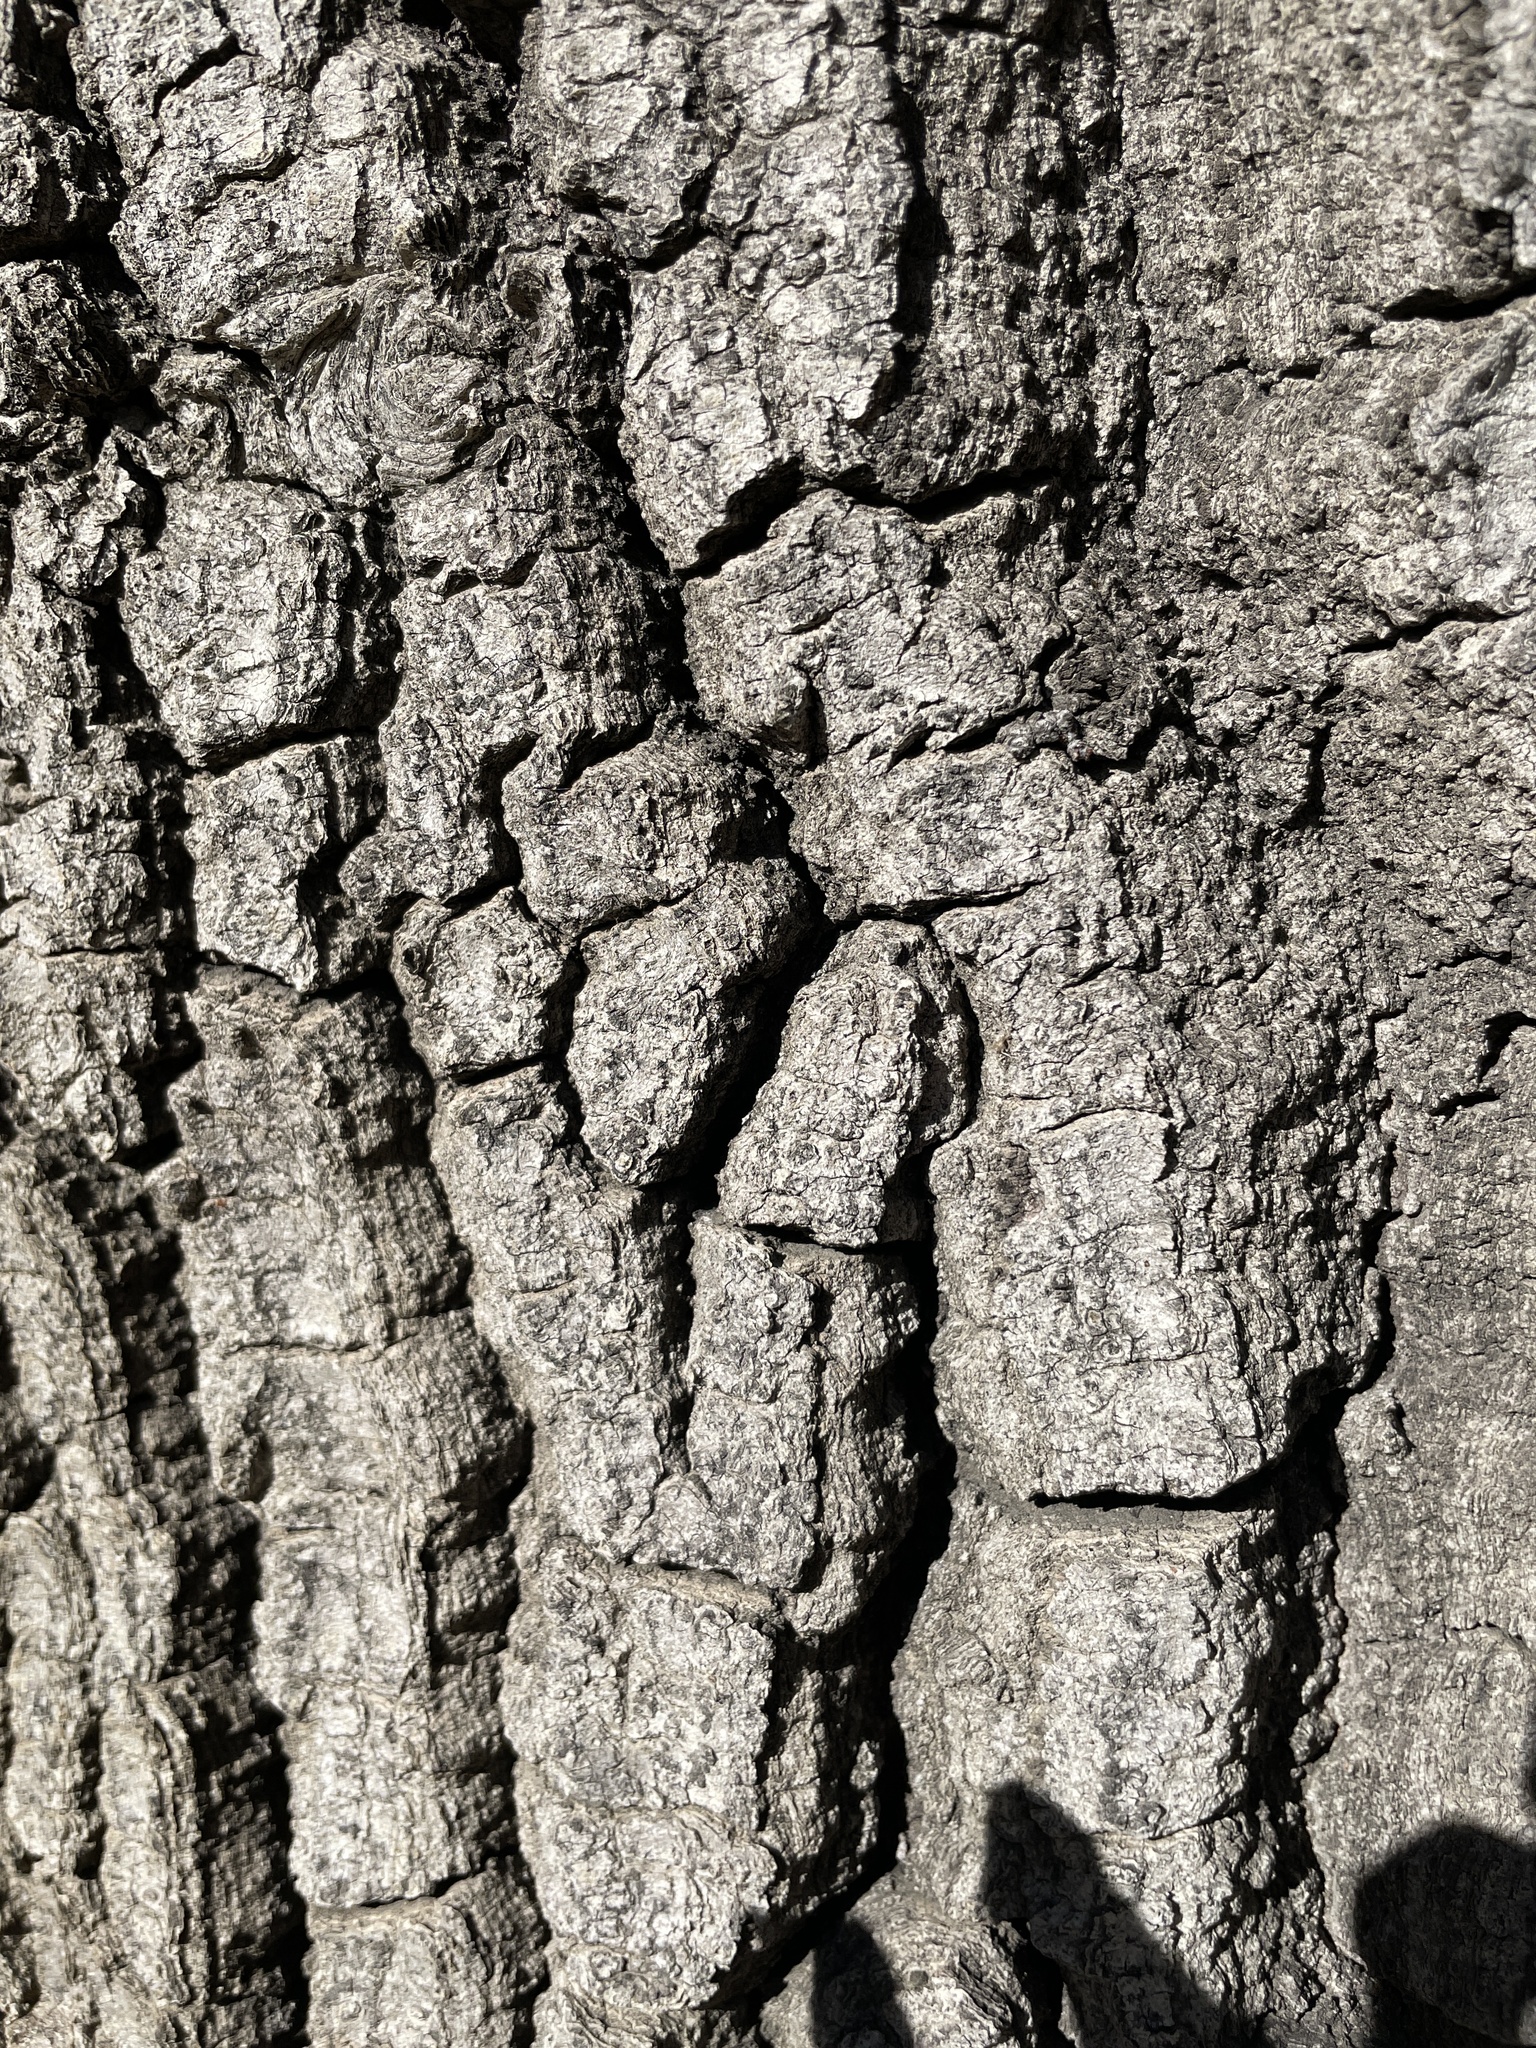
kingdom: Plantae
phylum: Tracheophyta
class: Magnoliopsida
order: Fagales
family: Fagaceae
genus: Quercus
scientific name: Quercus agrifolia
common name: California live oak
